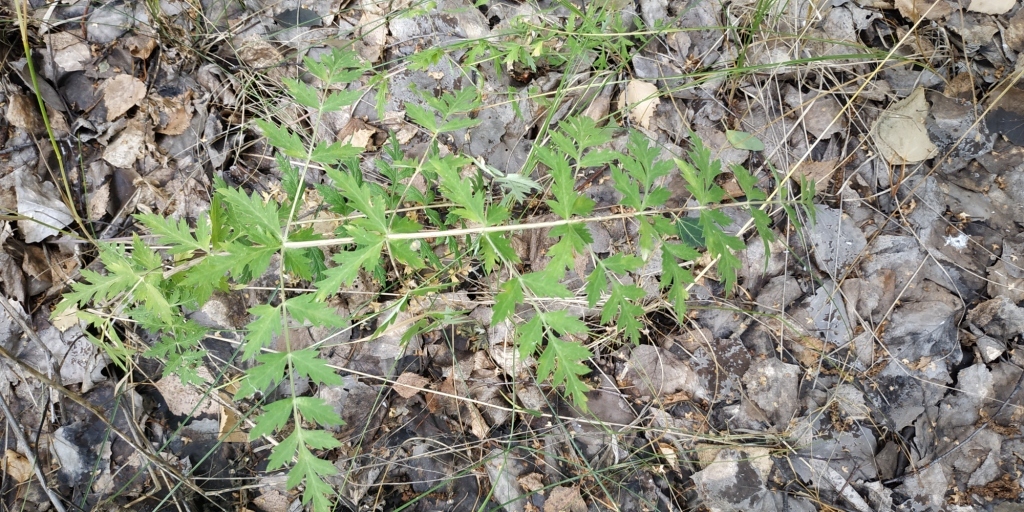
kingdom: Plantae
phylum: Tracheophyta
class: Magnoliopsida
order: Apiales
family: Apiaceae
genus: Seseli
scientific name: Seseli libanotis
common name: Mooncarrot
